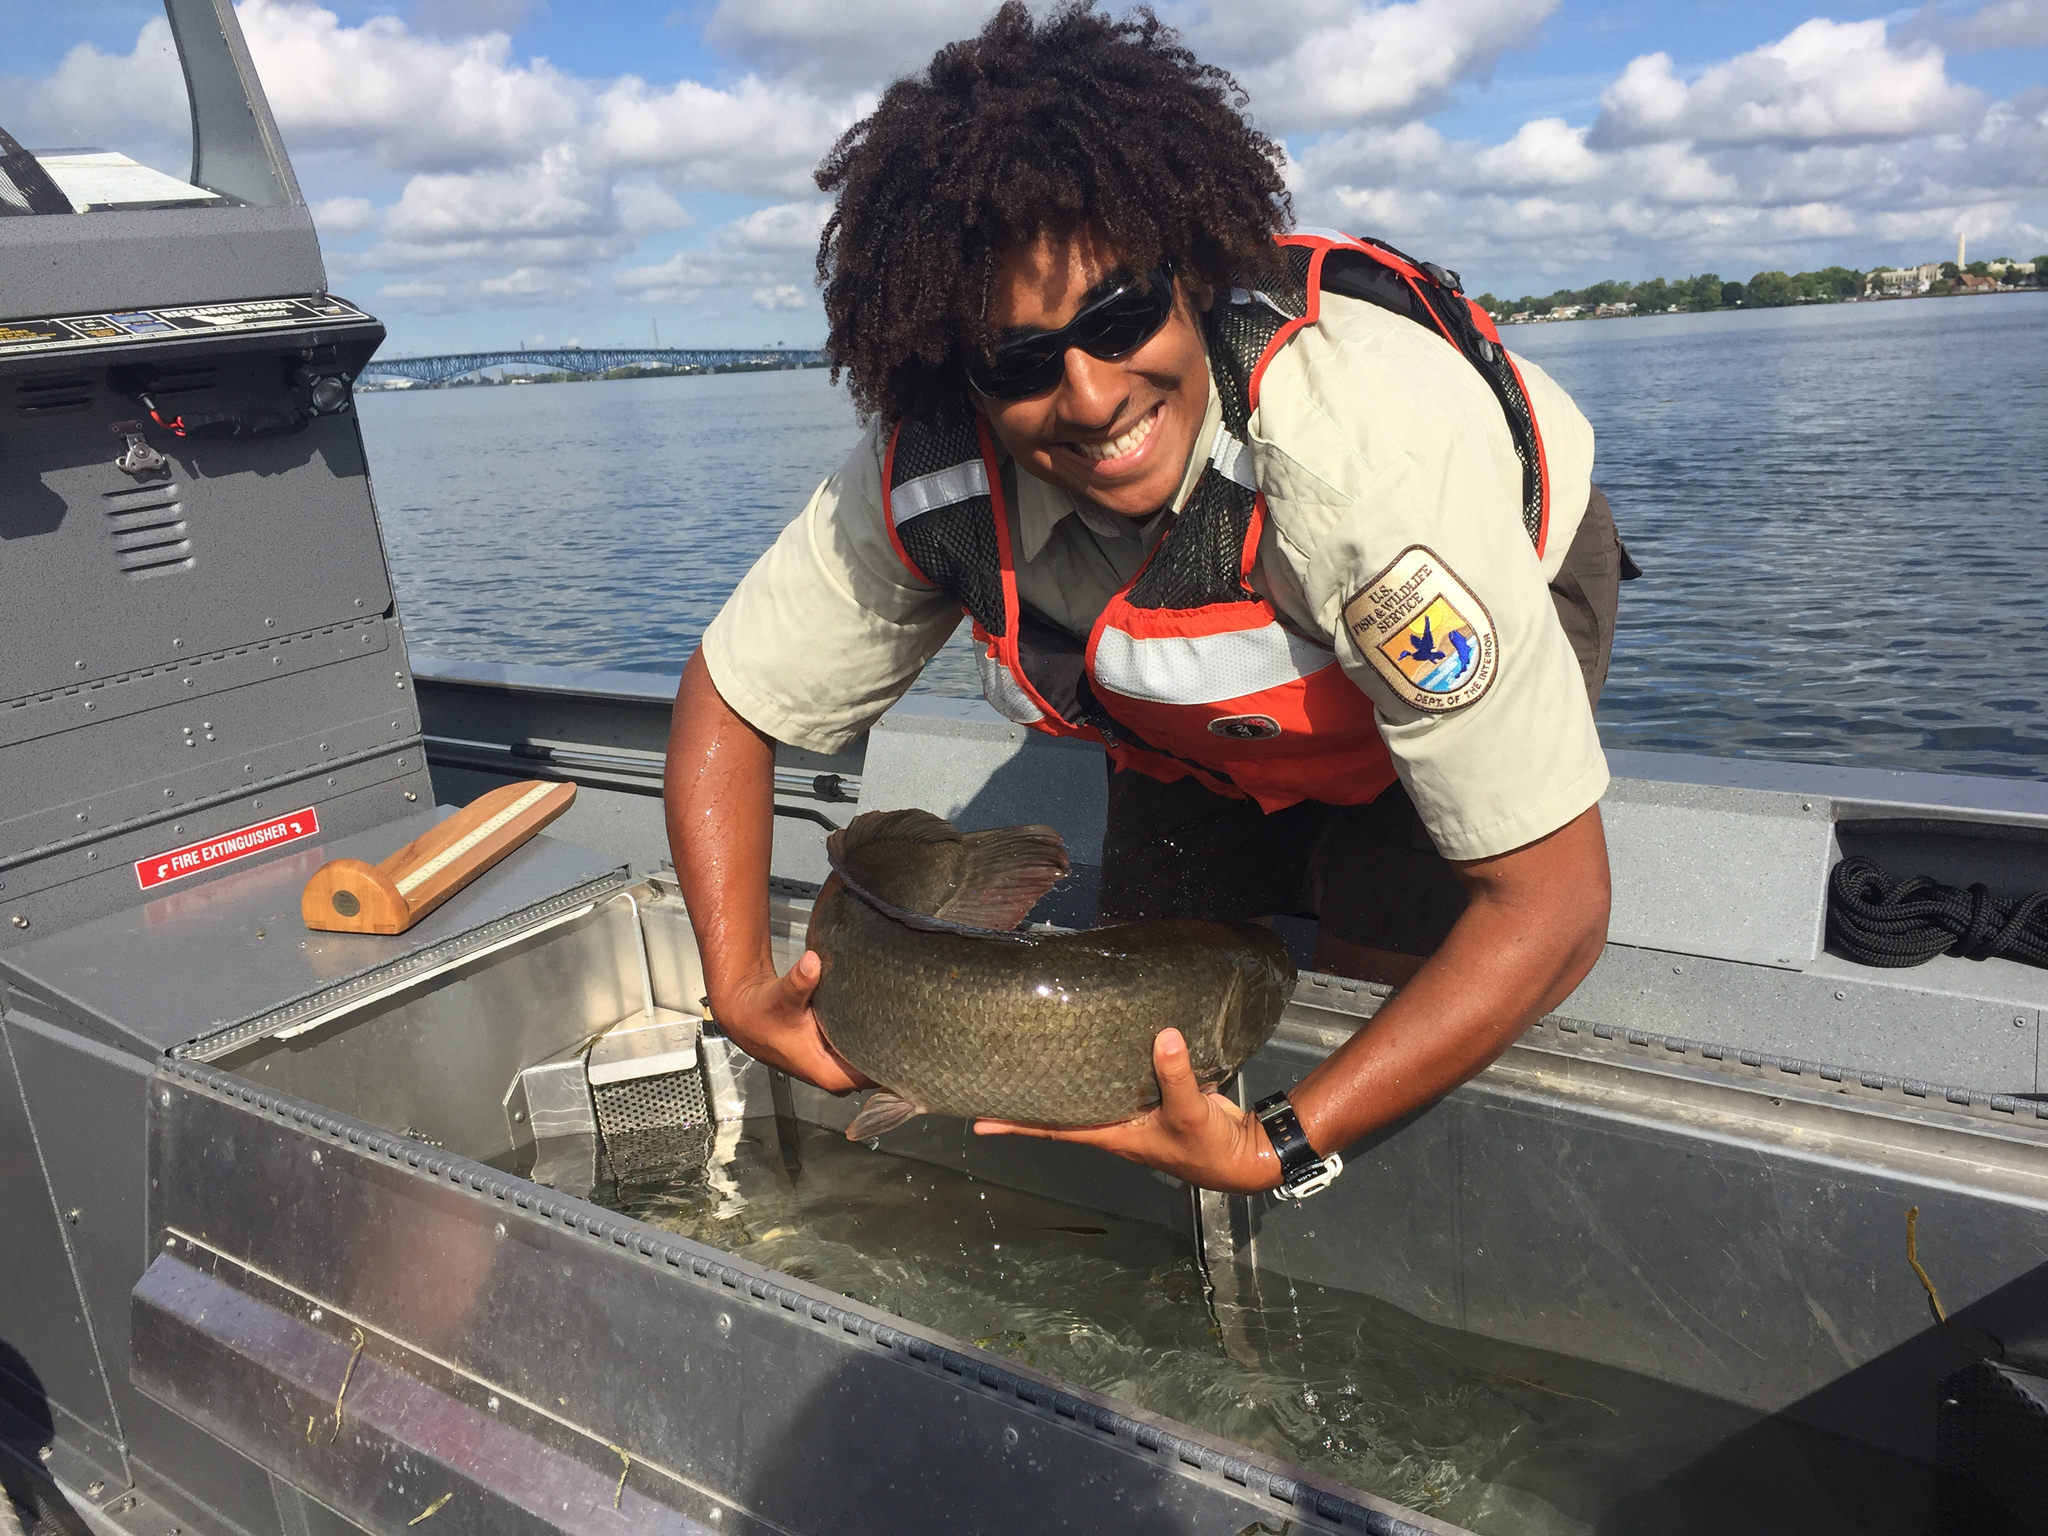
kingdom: Animalia
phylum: Chordata
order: Amiiformes
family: Amiidae
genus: Amia
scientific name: Amia calva
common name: Bowfin
